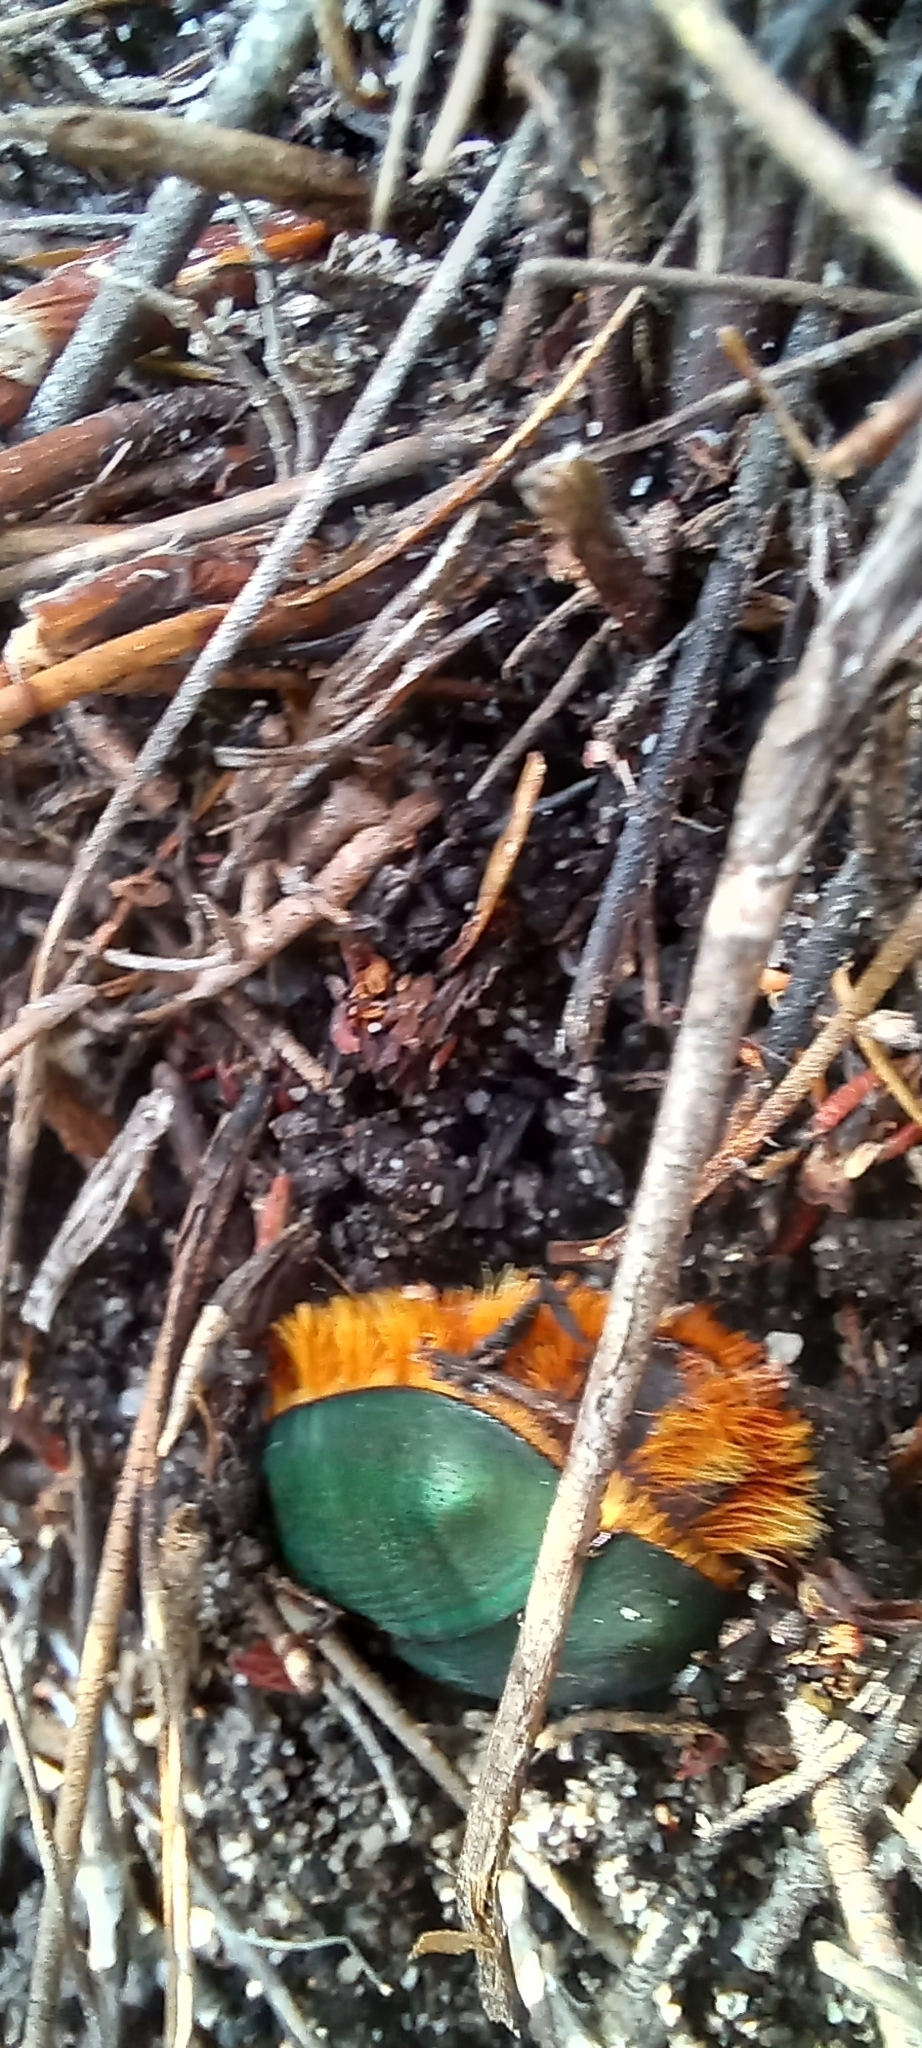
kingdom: Animalia
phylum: Arthropoda
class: Insecta
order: Coleoptera
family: Scarabaeidae
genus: Trichostetha
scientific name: Trichostetha fascicularis
